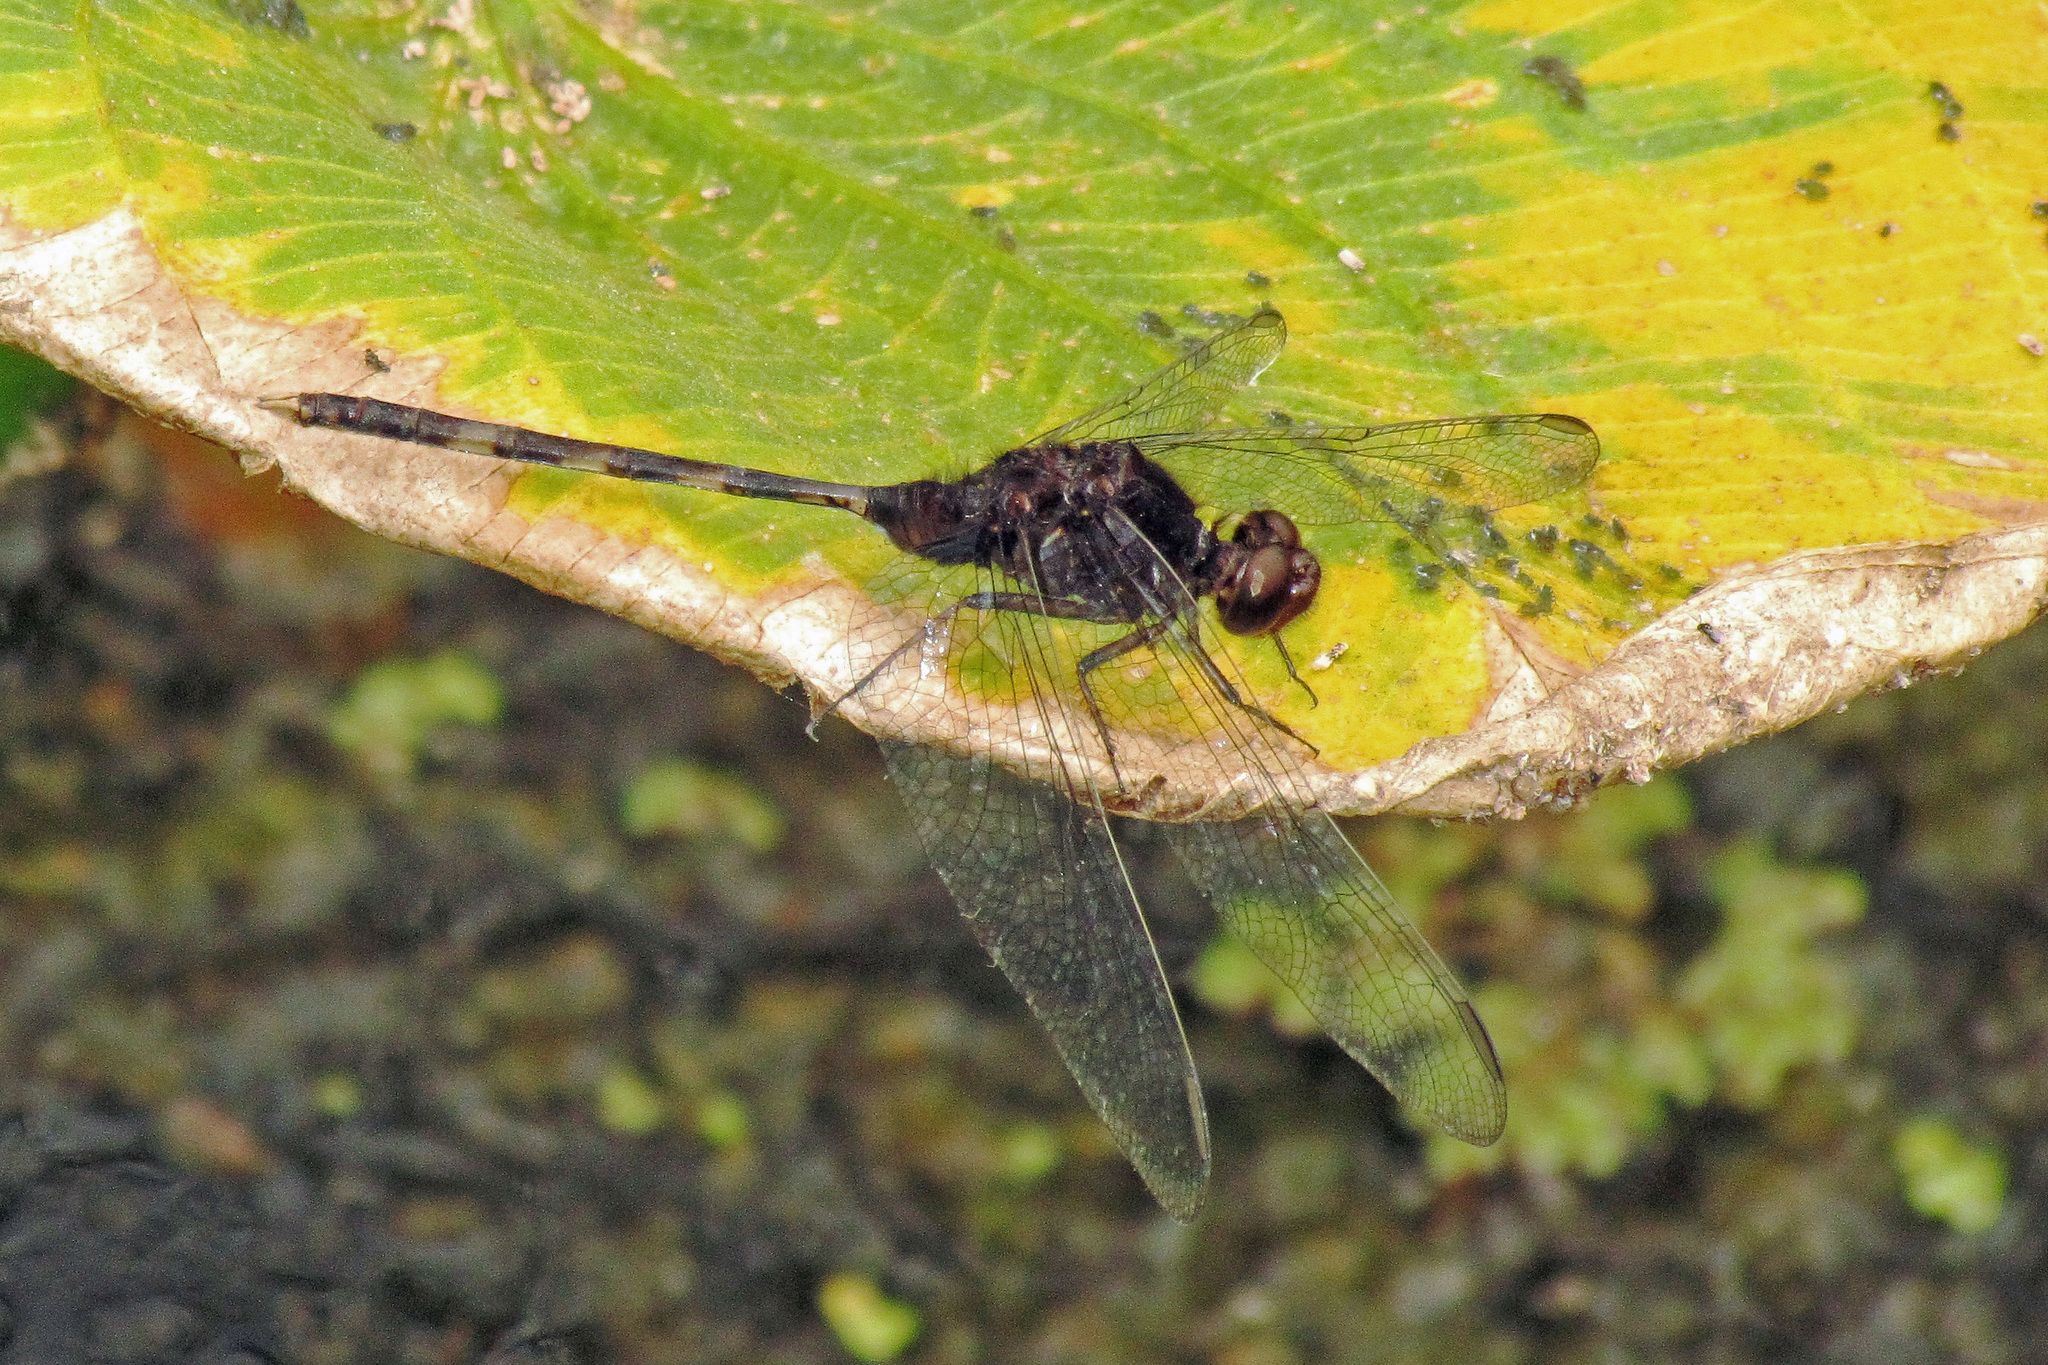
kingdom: Animalia
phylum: Arthropoda
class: Insecta
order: Odonata
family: Libellulidae
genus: Erythemis
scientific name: Erythemis plebeja
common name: Pin-tailed pondhawk
